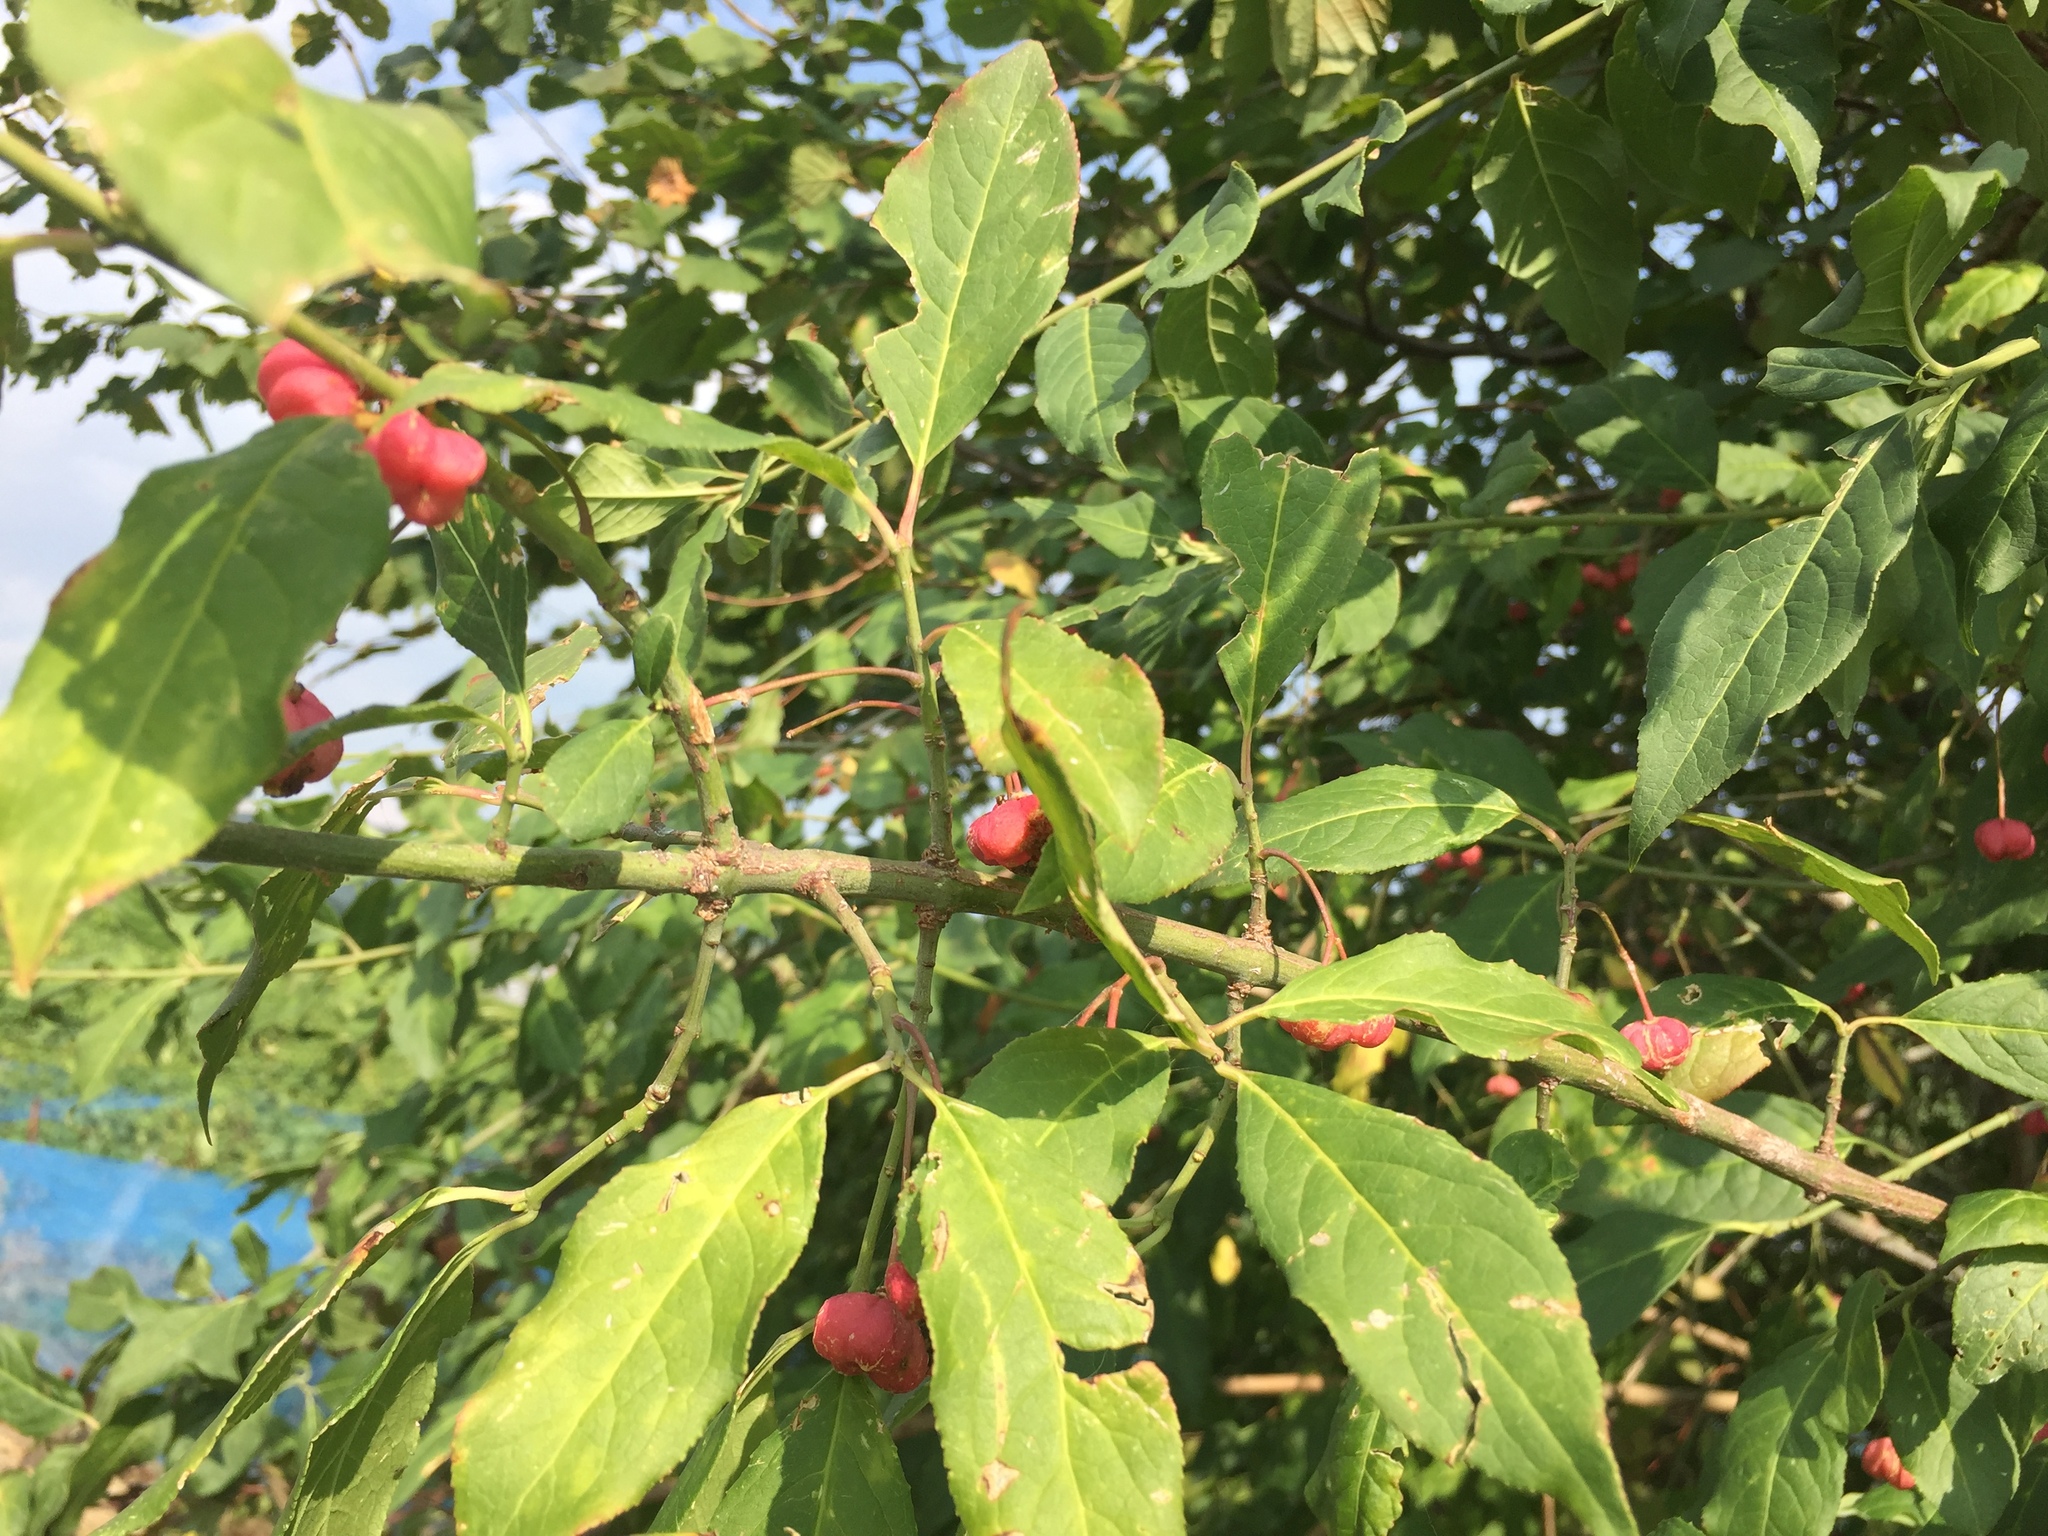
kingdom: Plantae
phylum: Tracheophyta
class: Magnoliopsida
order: Celastrales
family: Celastraceae
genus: Euonymus
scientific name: Euonymus europaeus
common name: Spindle
